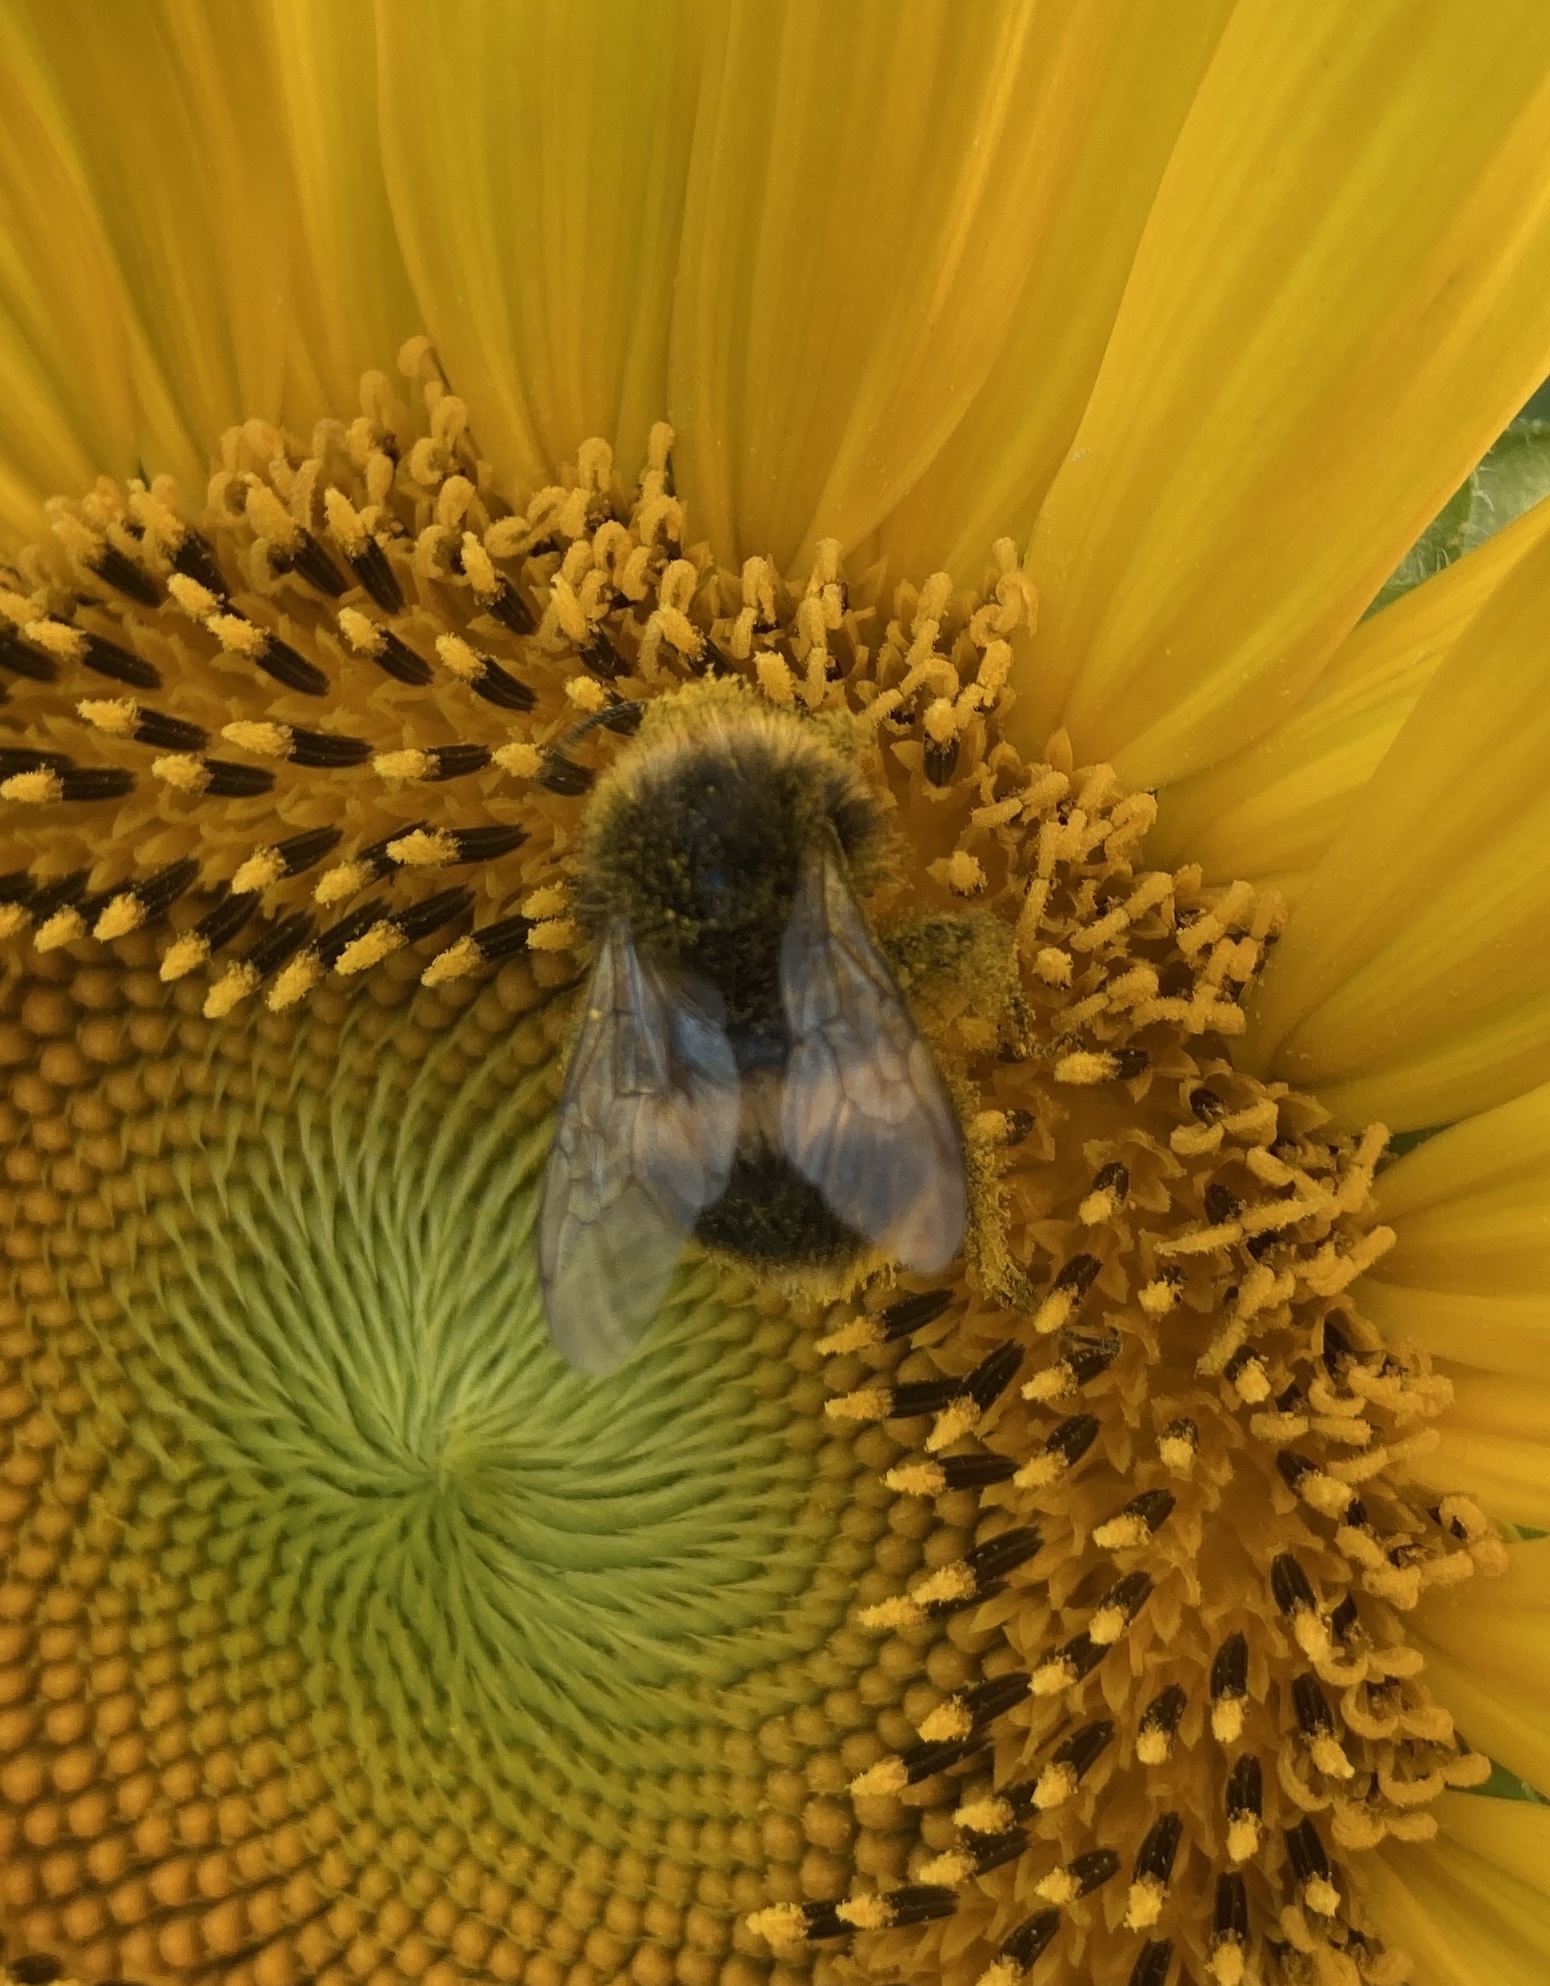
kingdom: Animalia
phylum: Arthropoda
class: Insecta
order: Hymenoptera
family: Apidae
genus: Bombus
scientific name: Bombus terrestris
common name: Buff-tailed bumblebee
